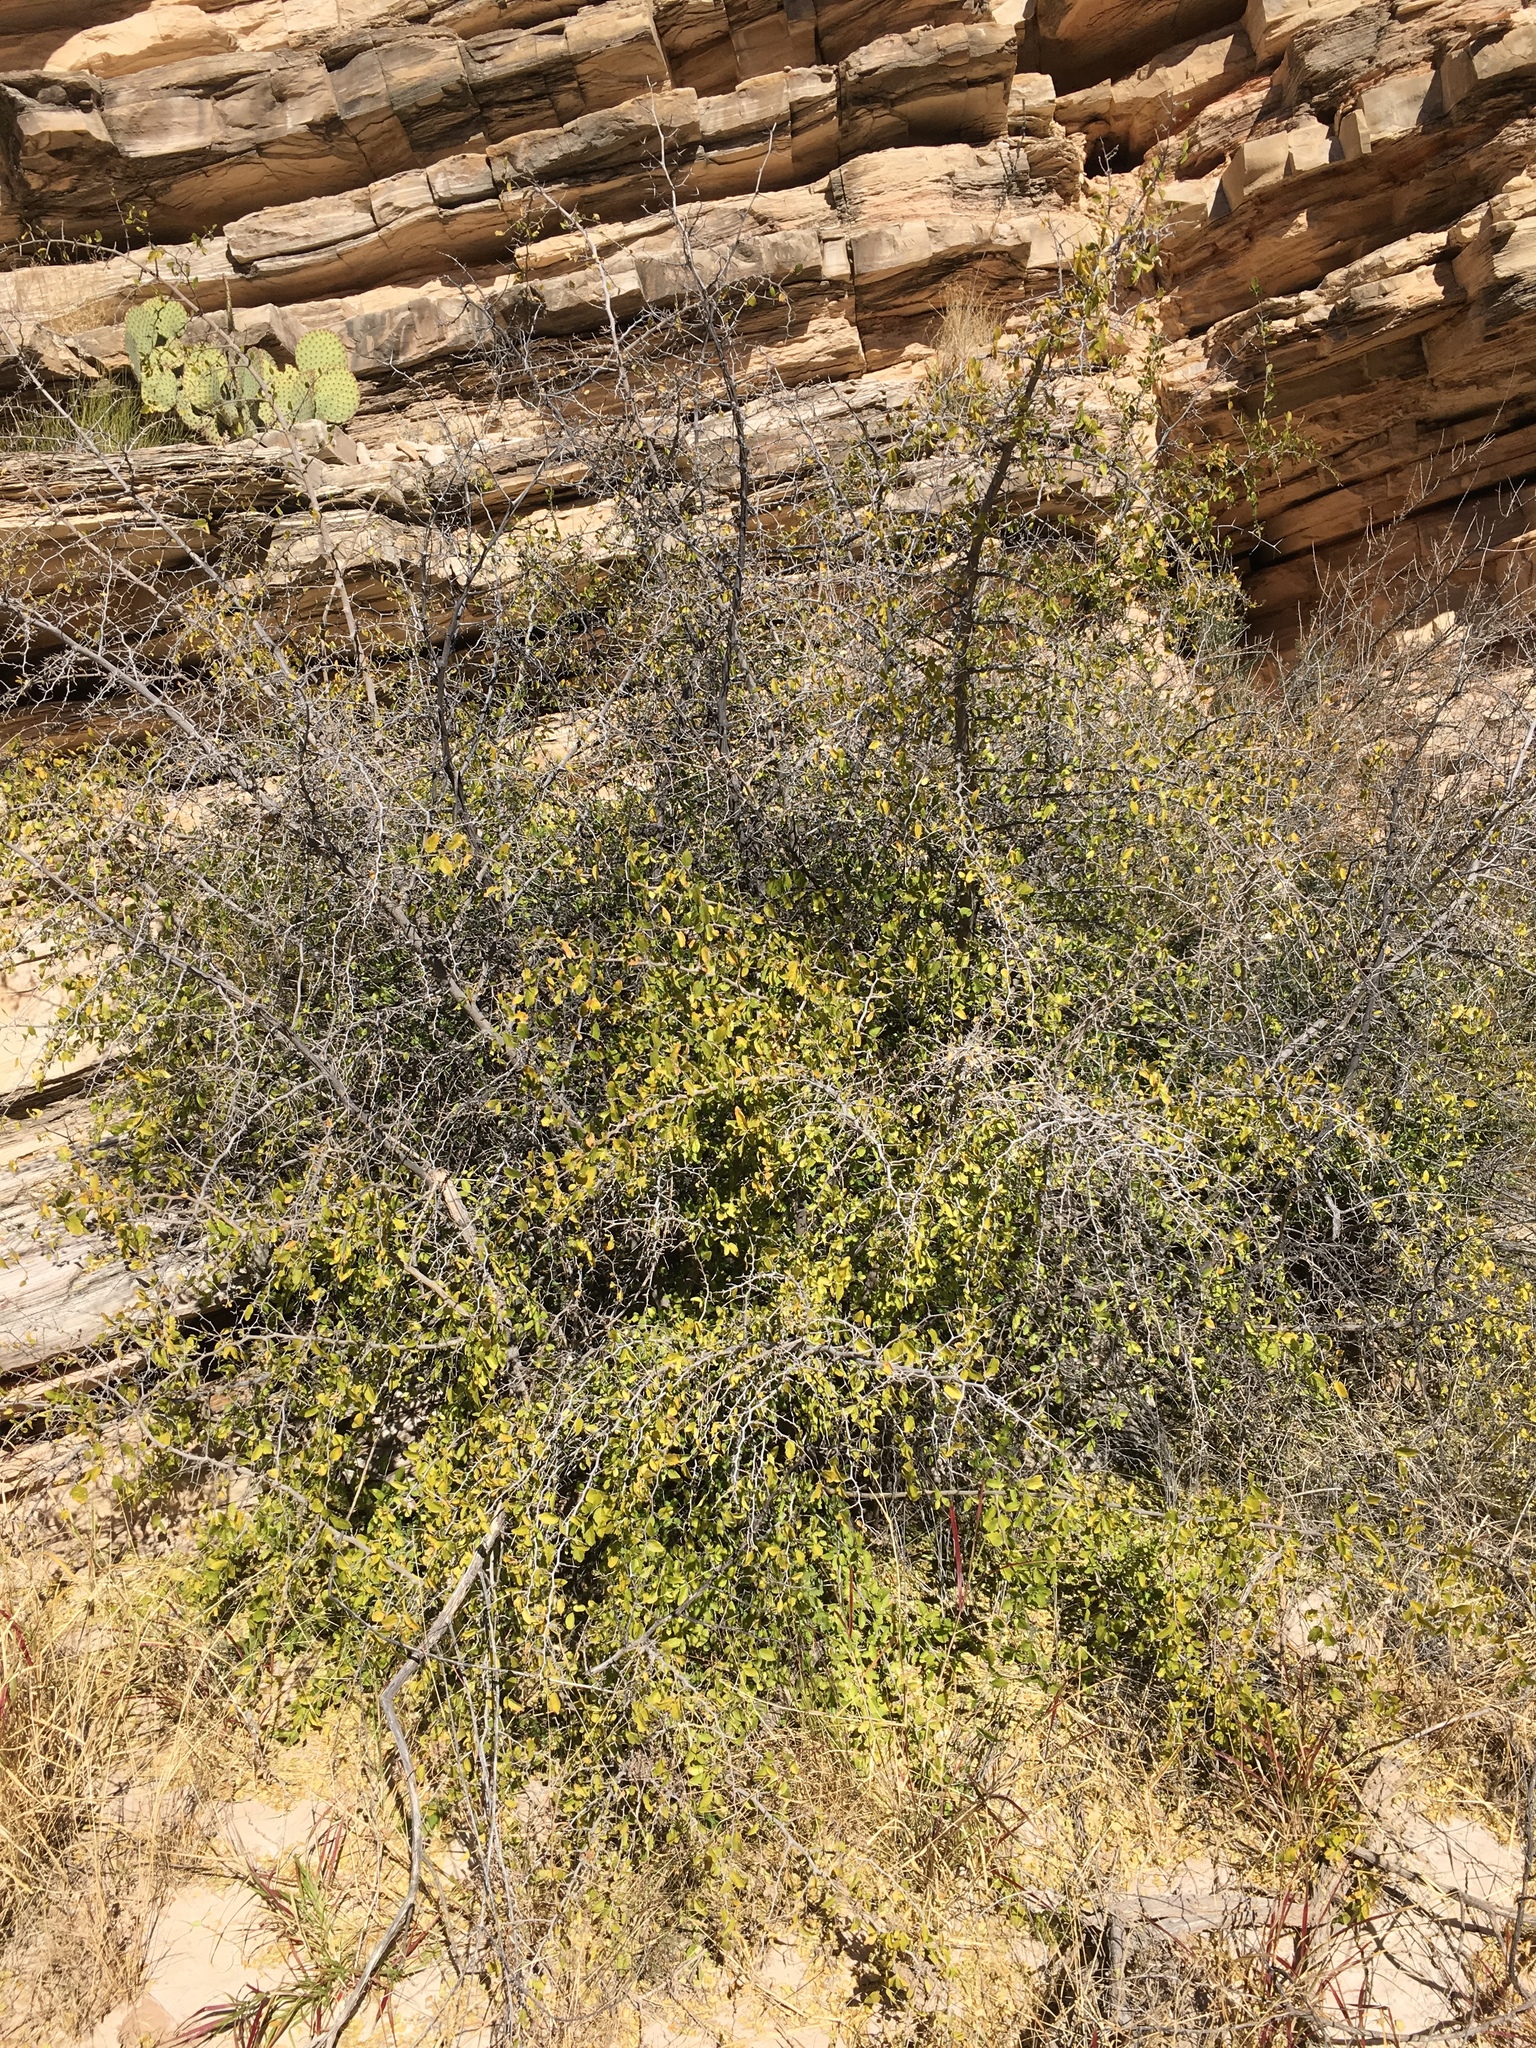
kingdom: Plantae
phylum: Tracheophyta
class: Magnoliopsida
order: Rosales
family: Cannabaceae
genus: Celtis
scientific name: Celtis pallida
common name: Desert hackberry
